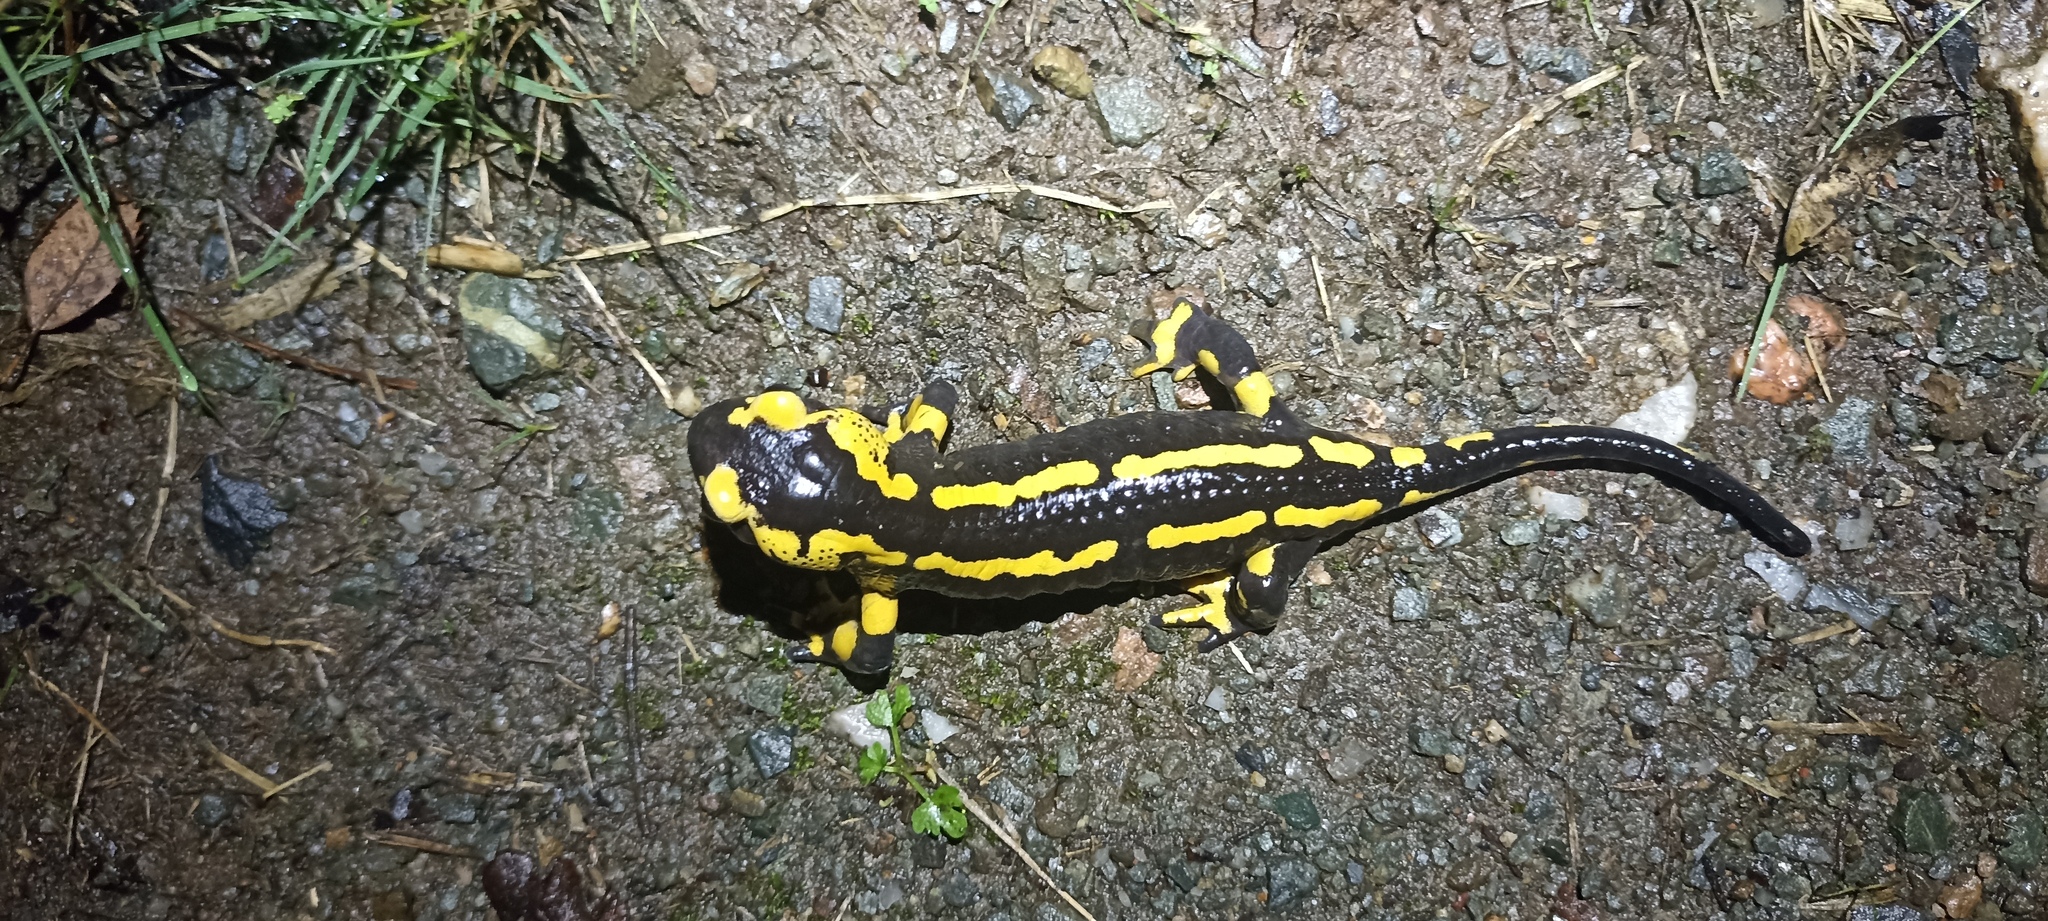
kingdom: Animalia
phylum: Chordata
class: Amphibia
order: Caudata
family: Salamandridae
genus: Salamandra
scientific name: Salamandra salamandra
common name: Fire salamander
